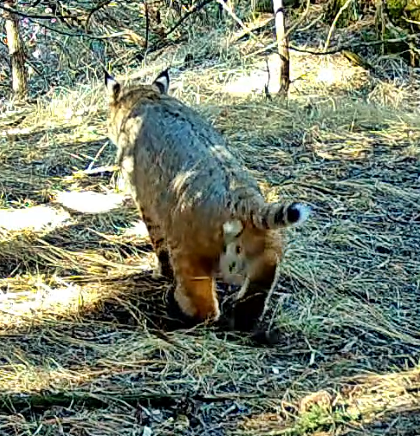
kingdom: Animalia
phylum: Chordata
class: Mammalia
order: Carnivora
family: Felidae
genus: Lynx
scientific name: Lynx rufus
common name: Bobcat
